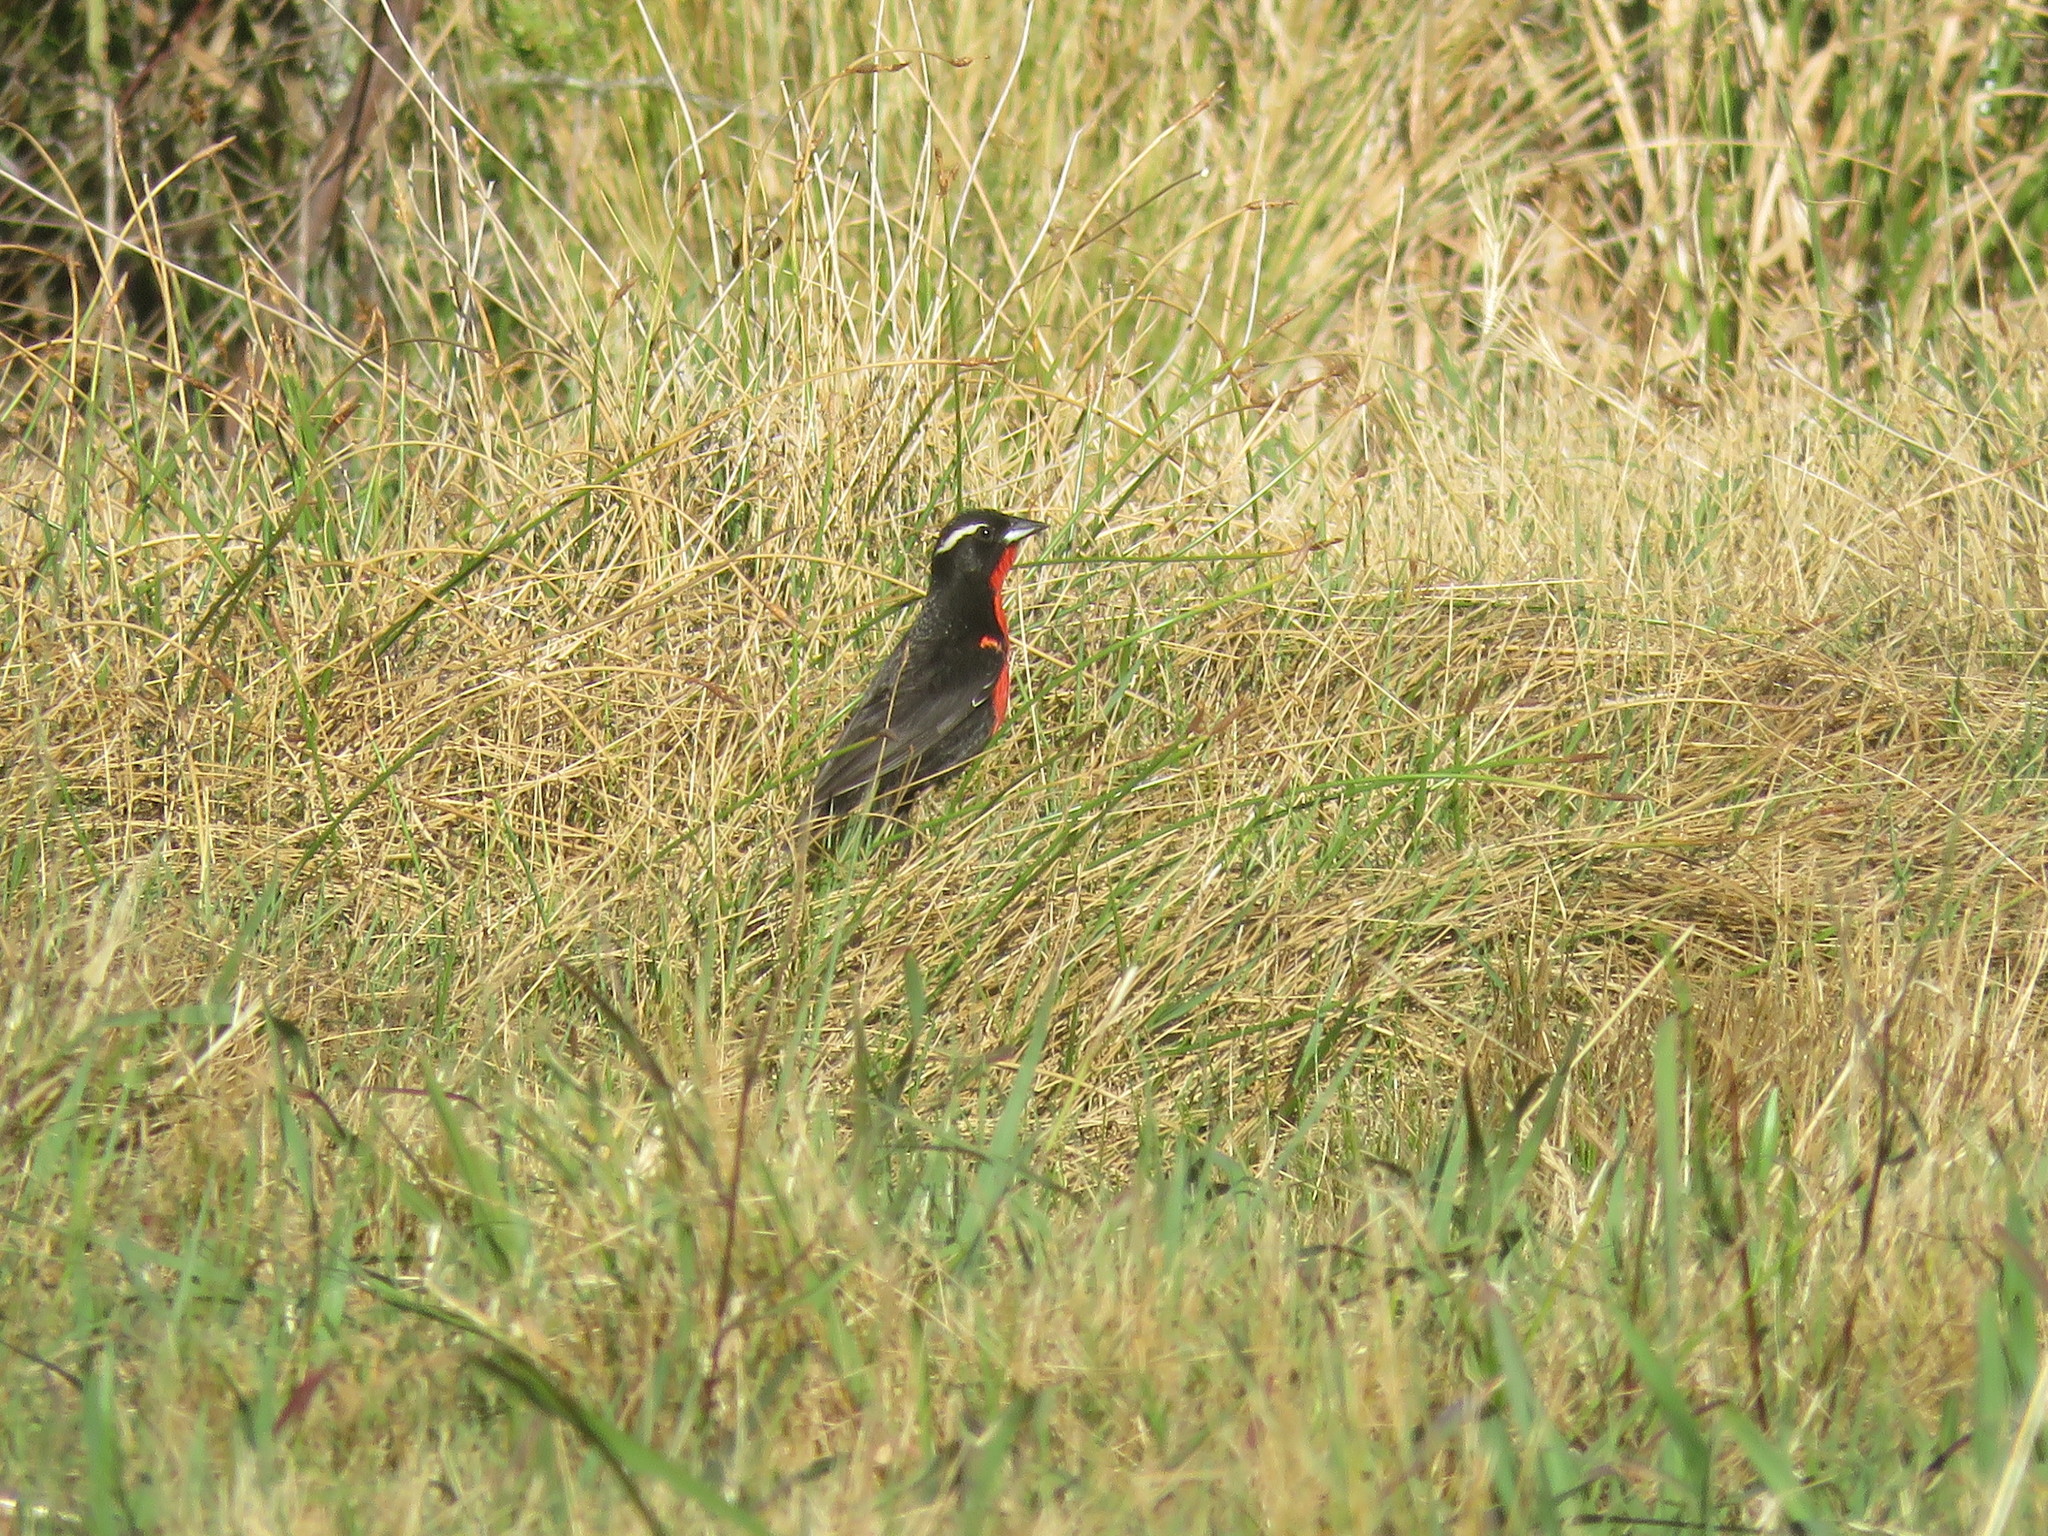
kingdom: Animalia
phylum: Chordata
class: Aves
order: Passeriformes
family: Icteridae
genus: Sturnella
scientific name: Sturnella superciliaris
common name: White-browed blackbird
